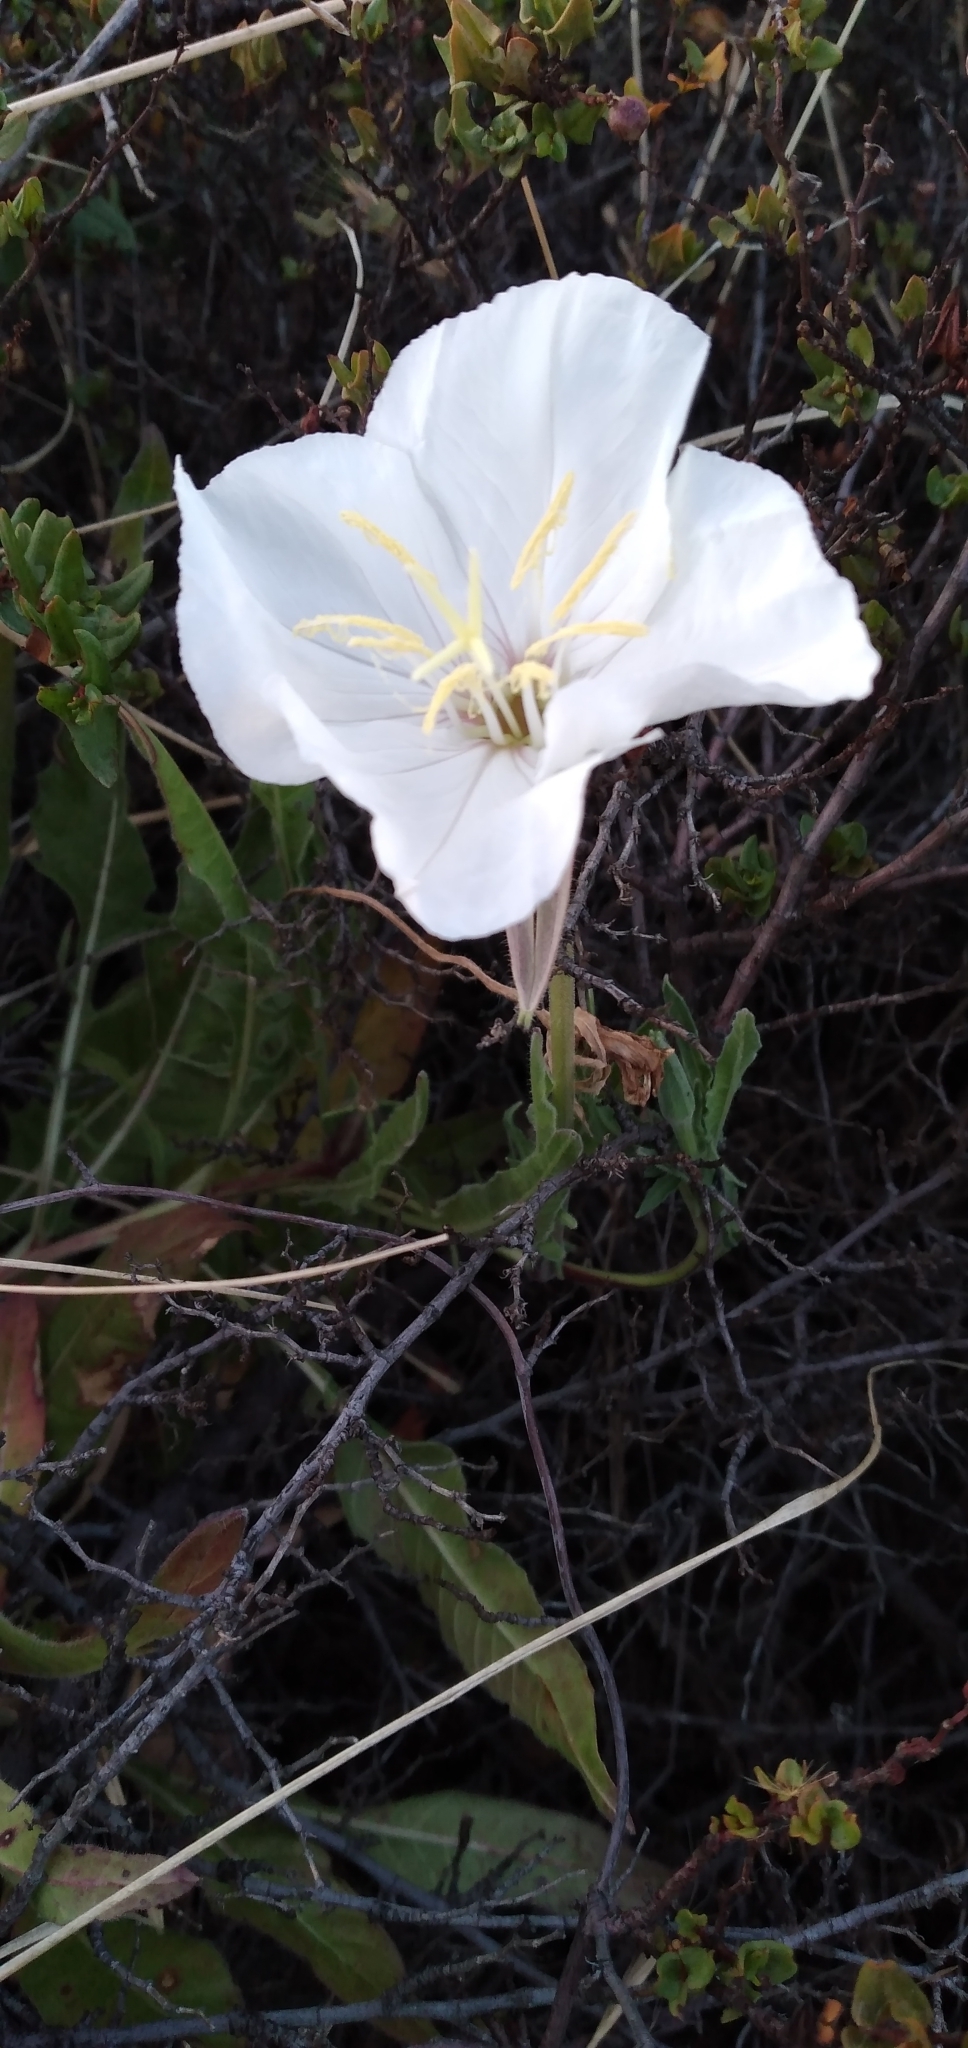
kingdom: Plantae
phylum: Tracheophyta
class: Magnoliopsida
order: Myrtales
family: Onagraceae
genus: Oenothera
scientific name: Oenothera acaulis
